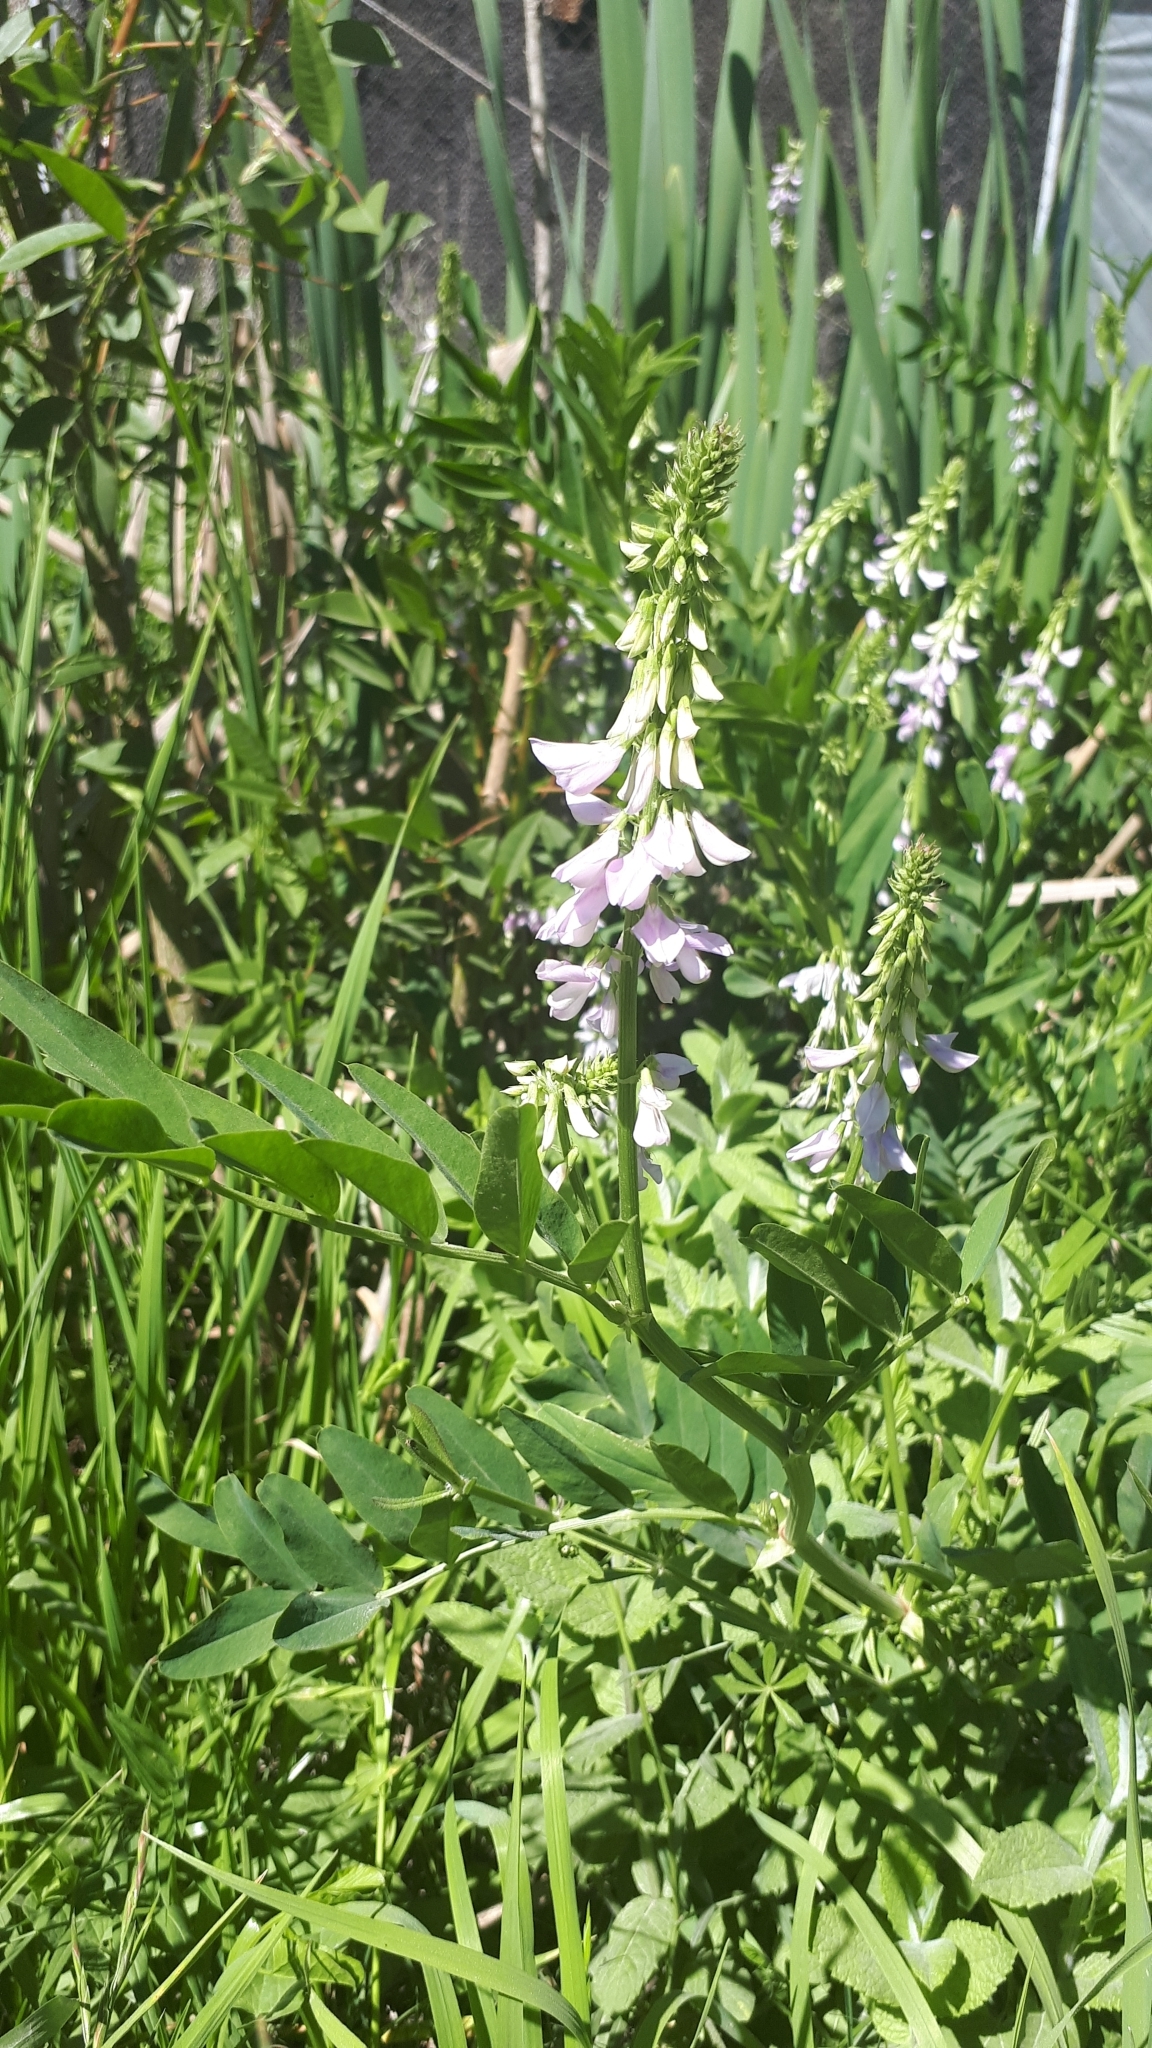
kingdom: Plantae
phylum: Tracheophyta
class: Magnoliopsida
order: Fabales
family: Fabaceae
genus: Galega
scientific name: Galega officinalis
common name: Goat's-rue
